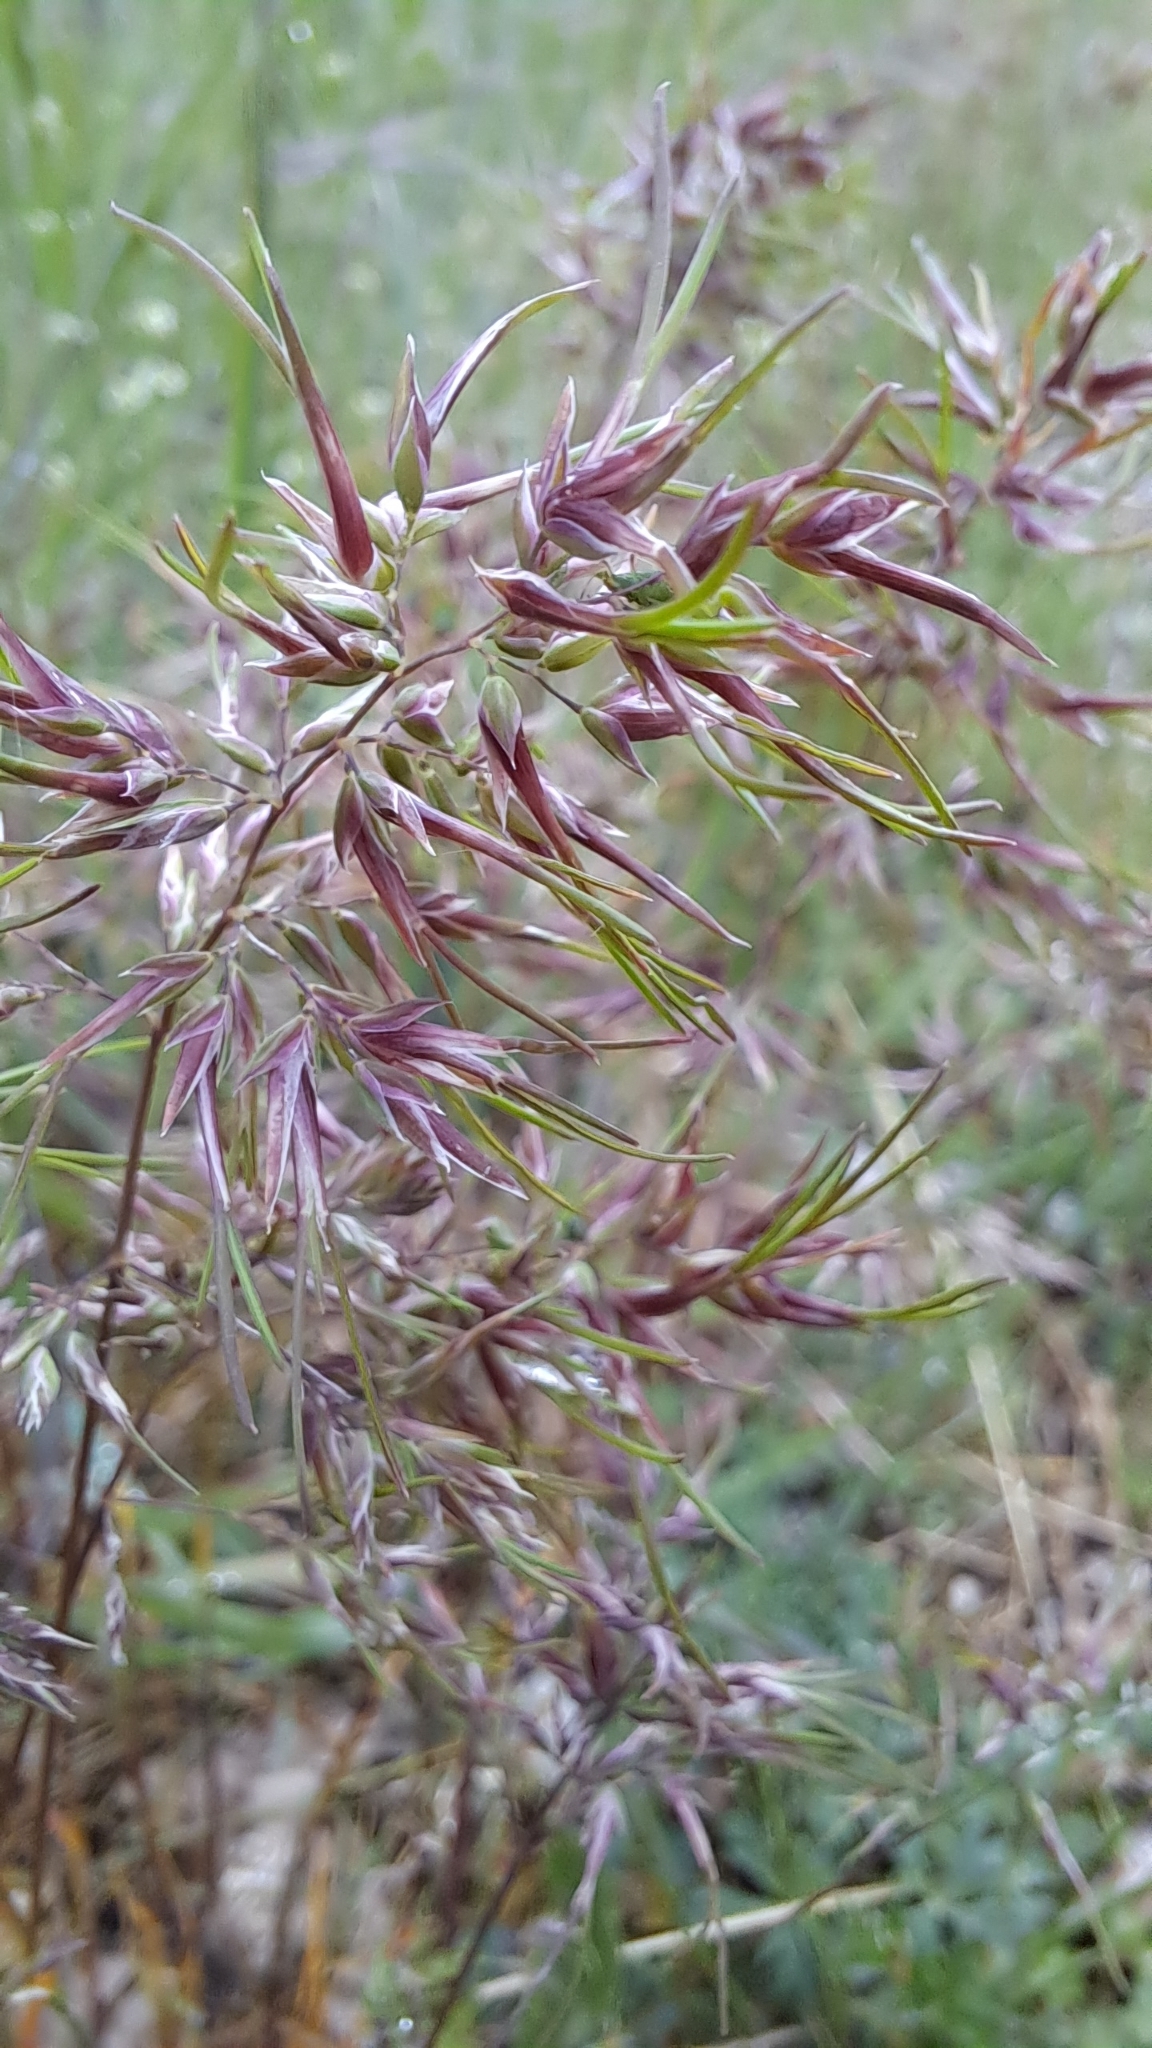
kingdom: Plantae
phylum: Tracheophyta
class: Liliopsida
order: Poales
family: Poaceae
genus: Poa
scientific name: Poa bulbosa
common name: Bulbous bluegrass
